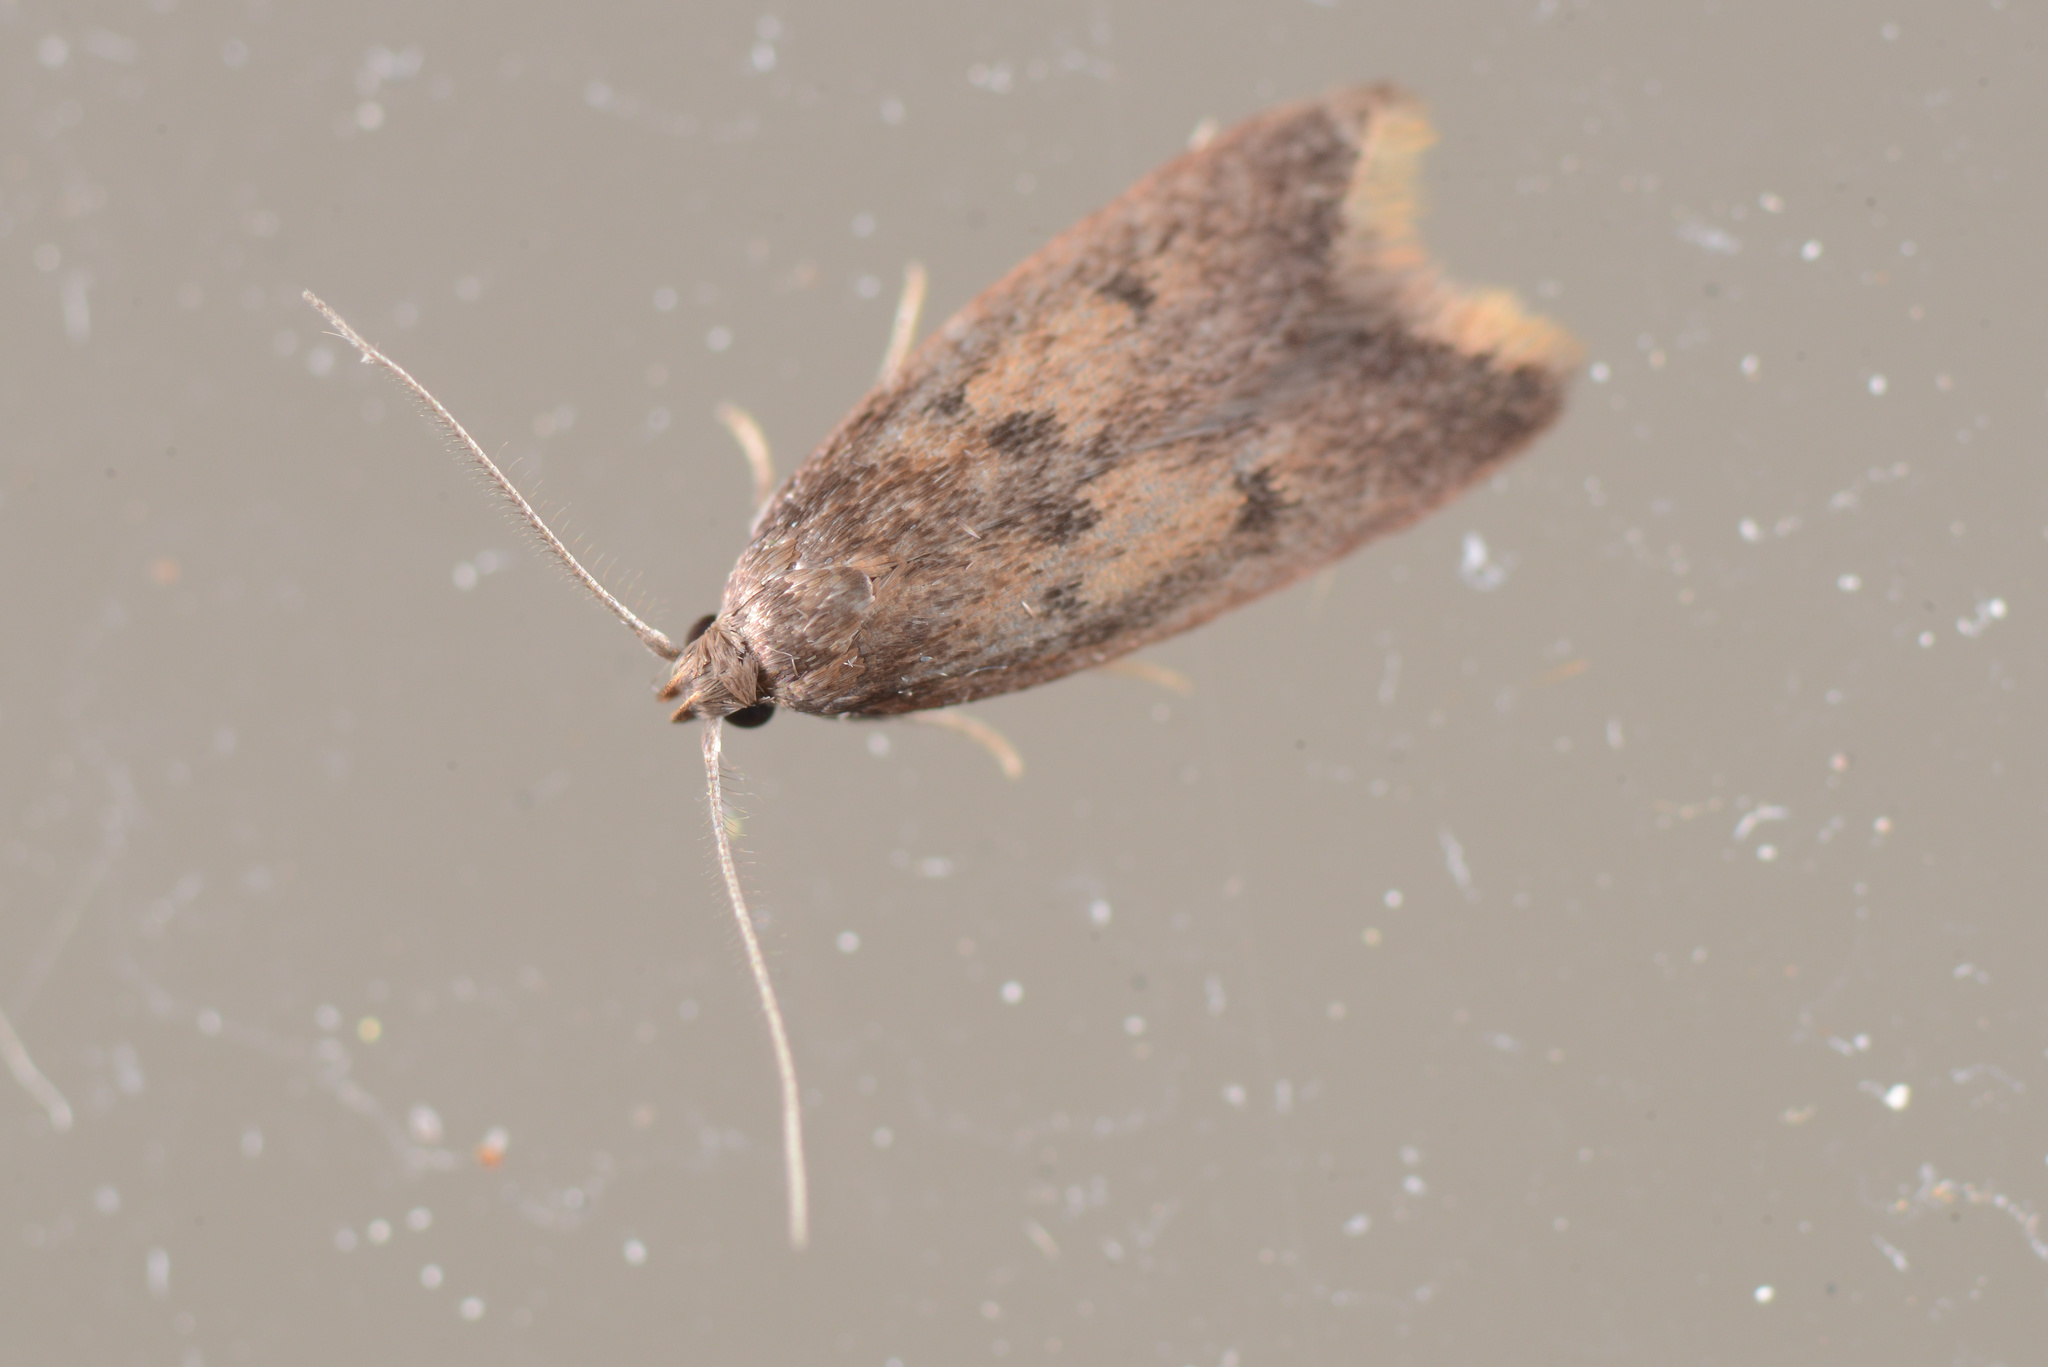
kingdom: Animalia
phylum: Arthropoda
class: Insecta
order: Lepidoptera
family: Oecophoridae
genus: Tachystola
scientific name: Tachystola acroxantha
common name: Ruddy streak
